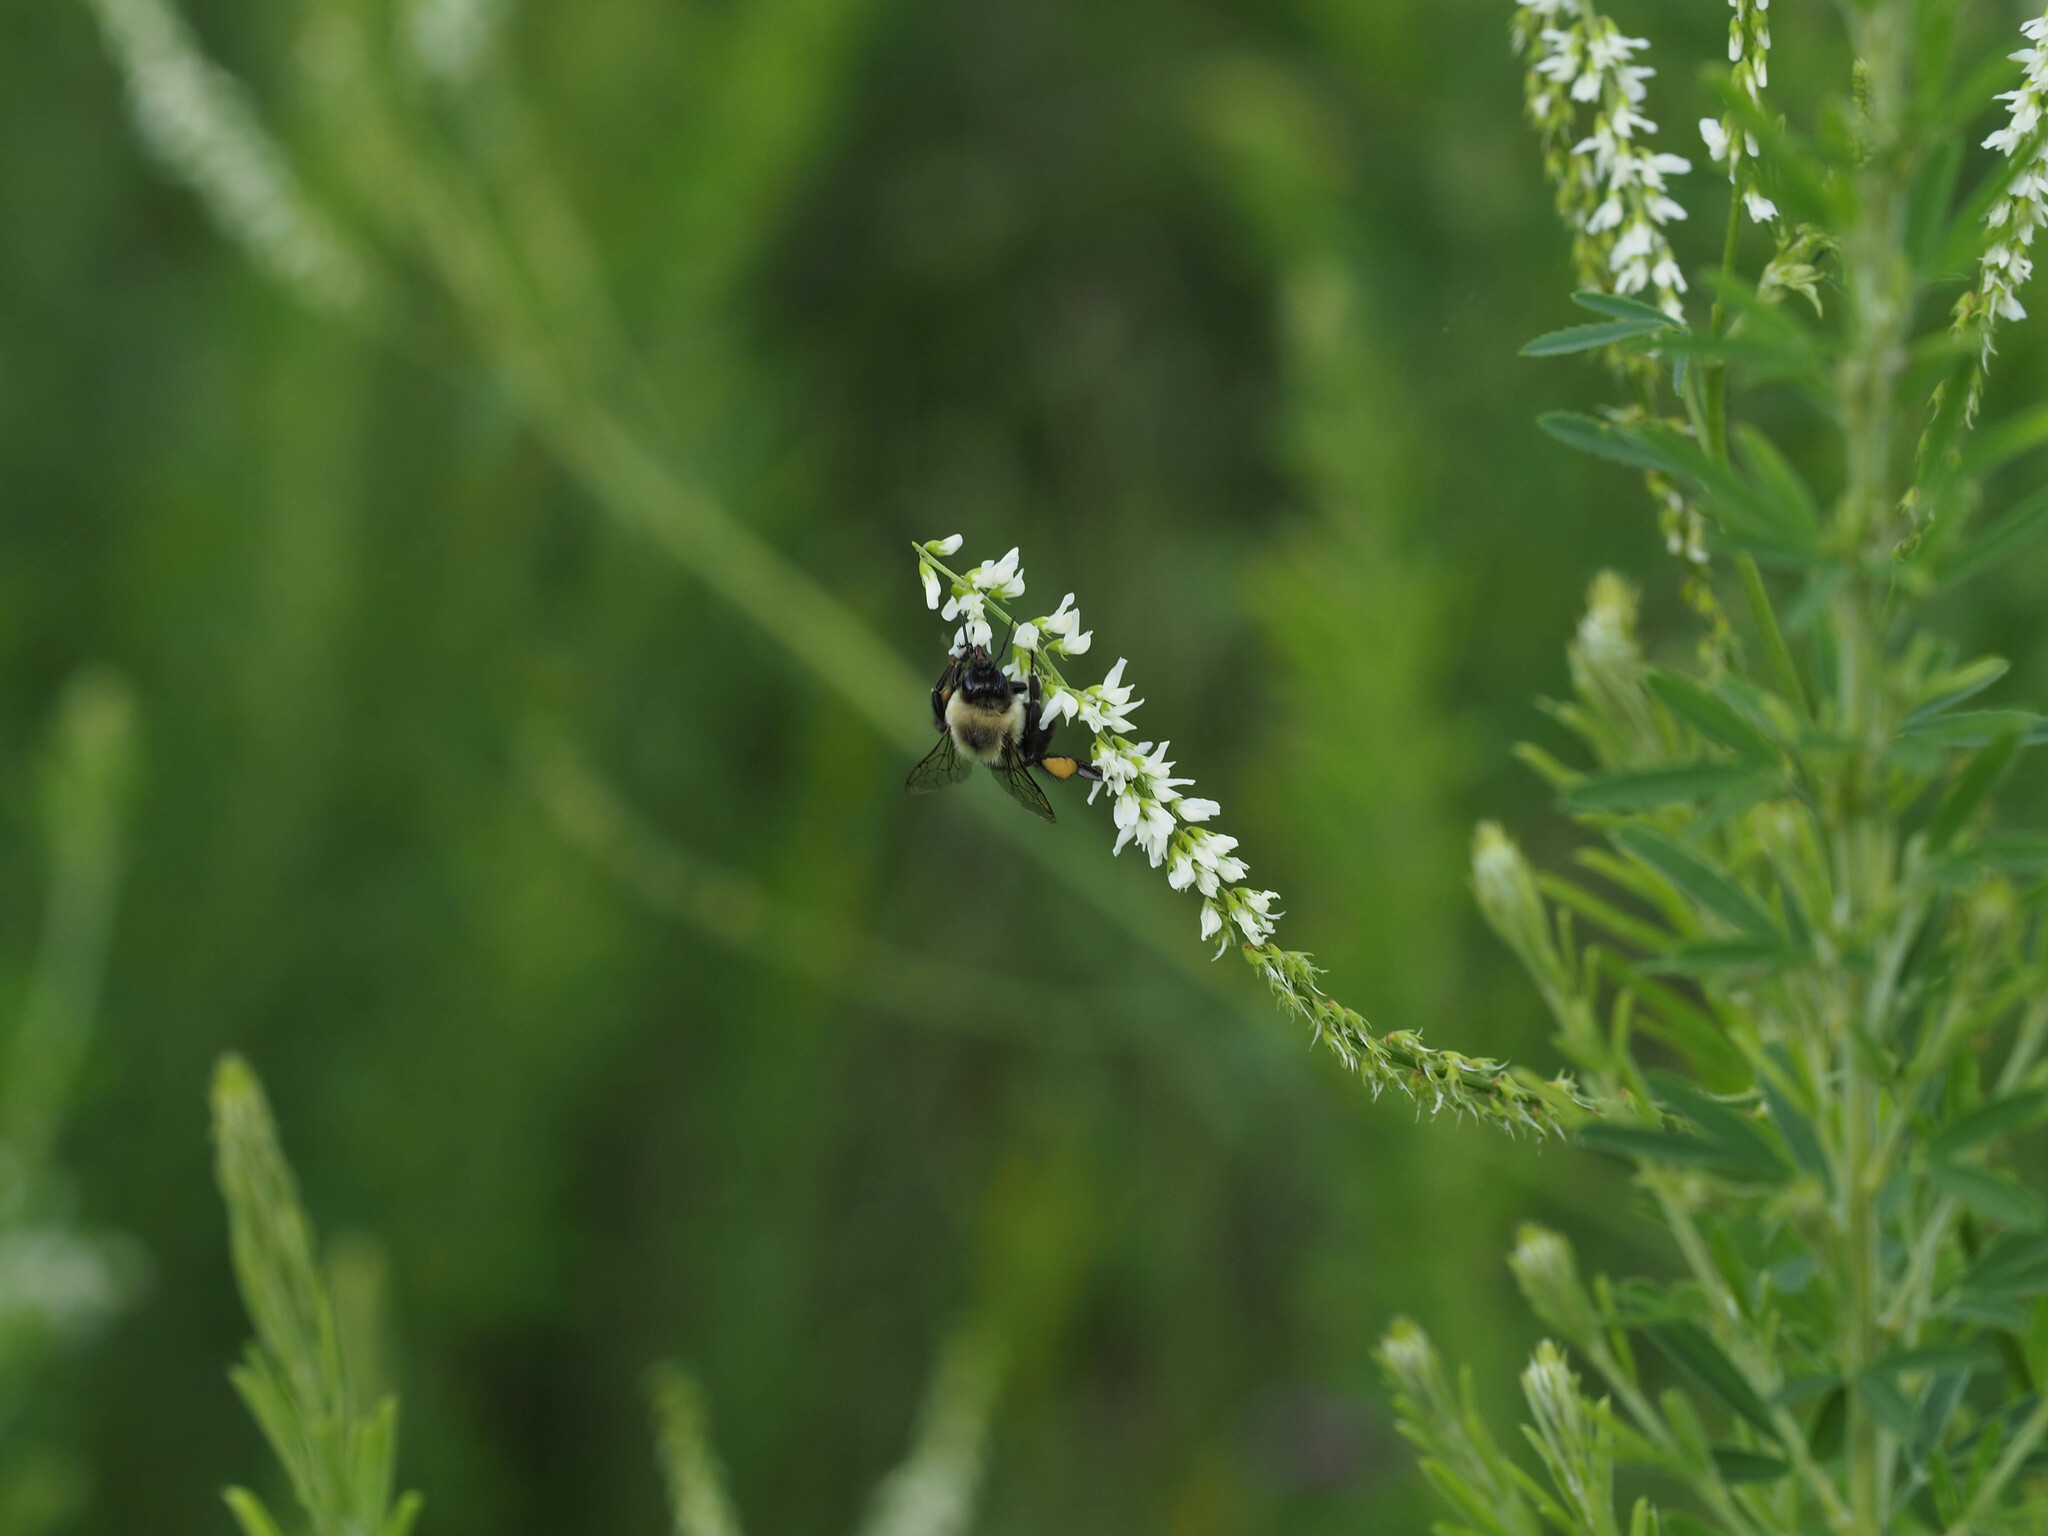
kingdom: Animalia
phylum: Arthropoda
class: Insecta
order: Hymenoptera
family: Apidae
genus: Bombus
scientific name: Bombus impatiens
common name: Common eastern bumble bee
